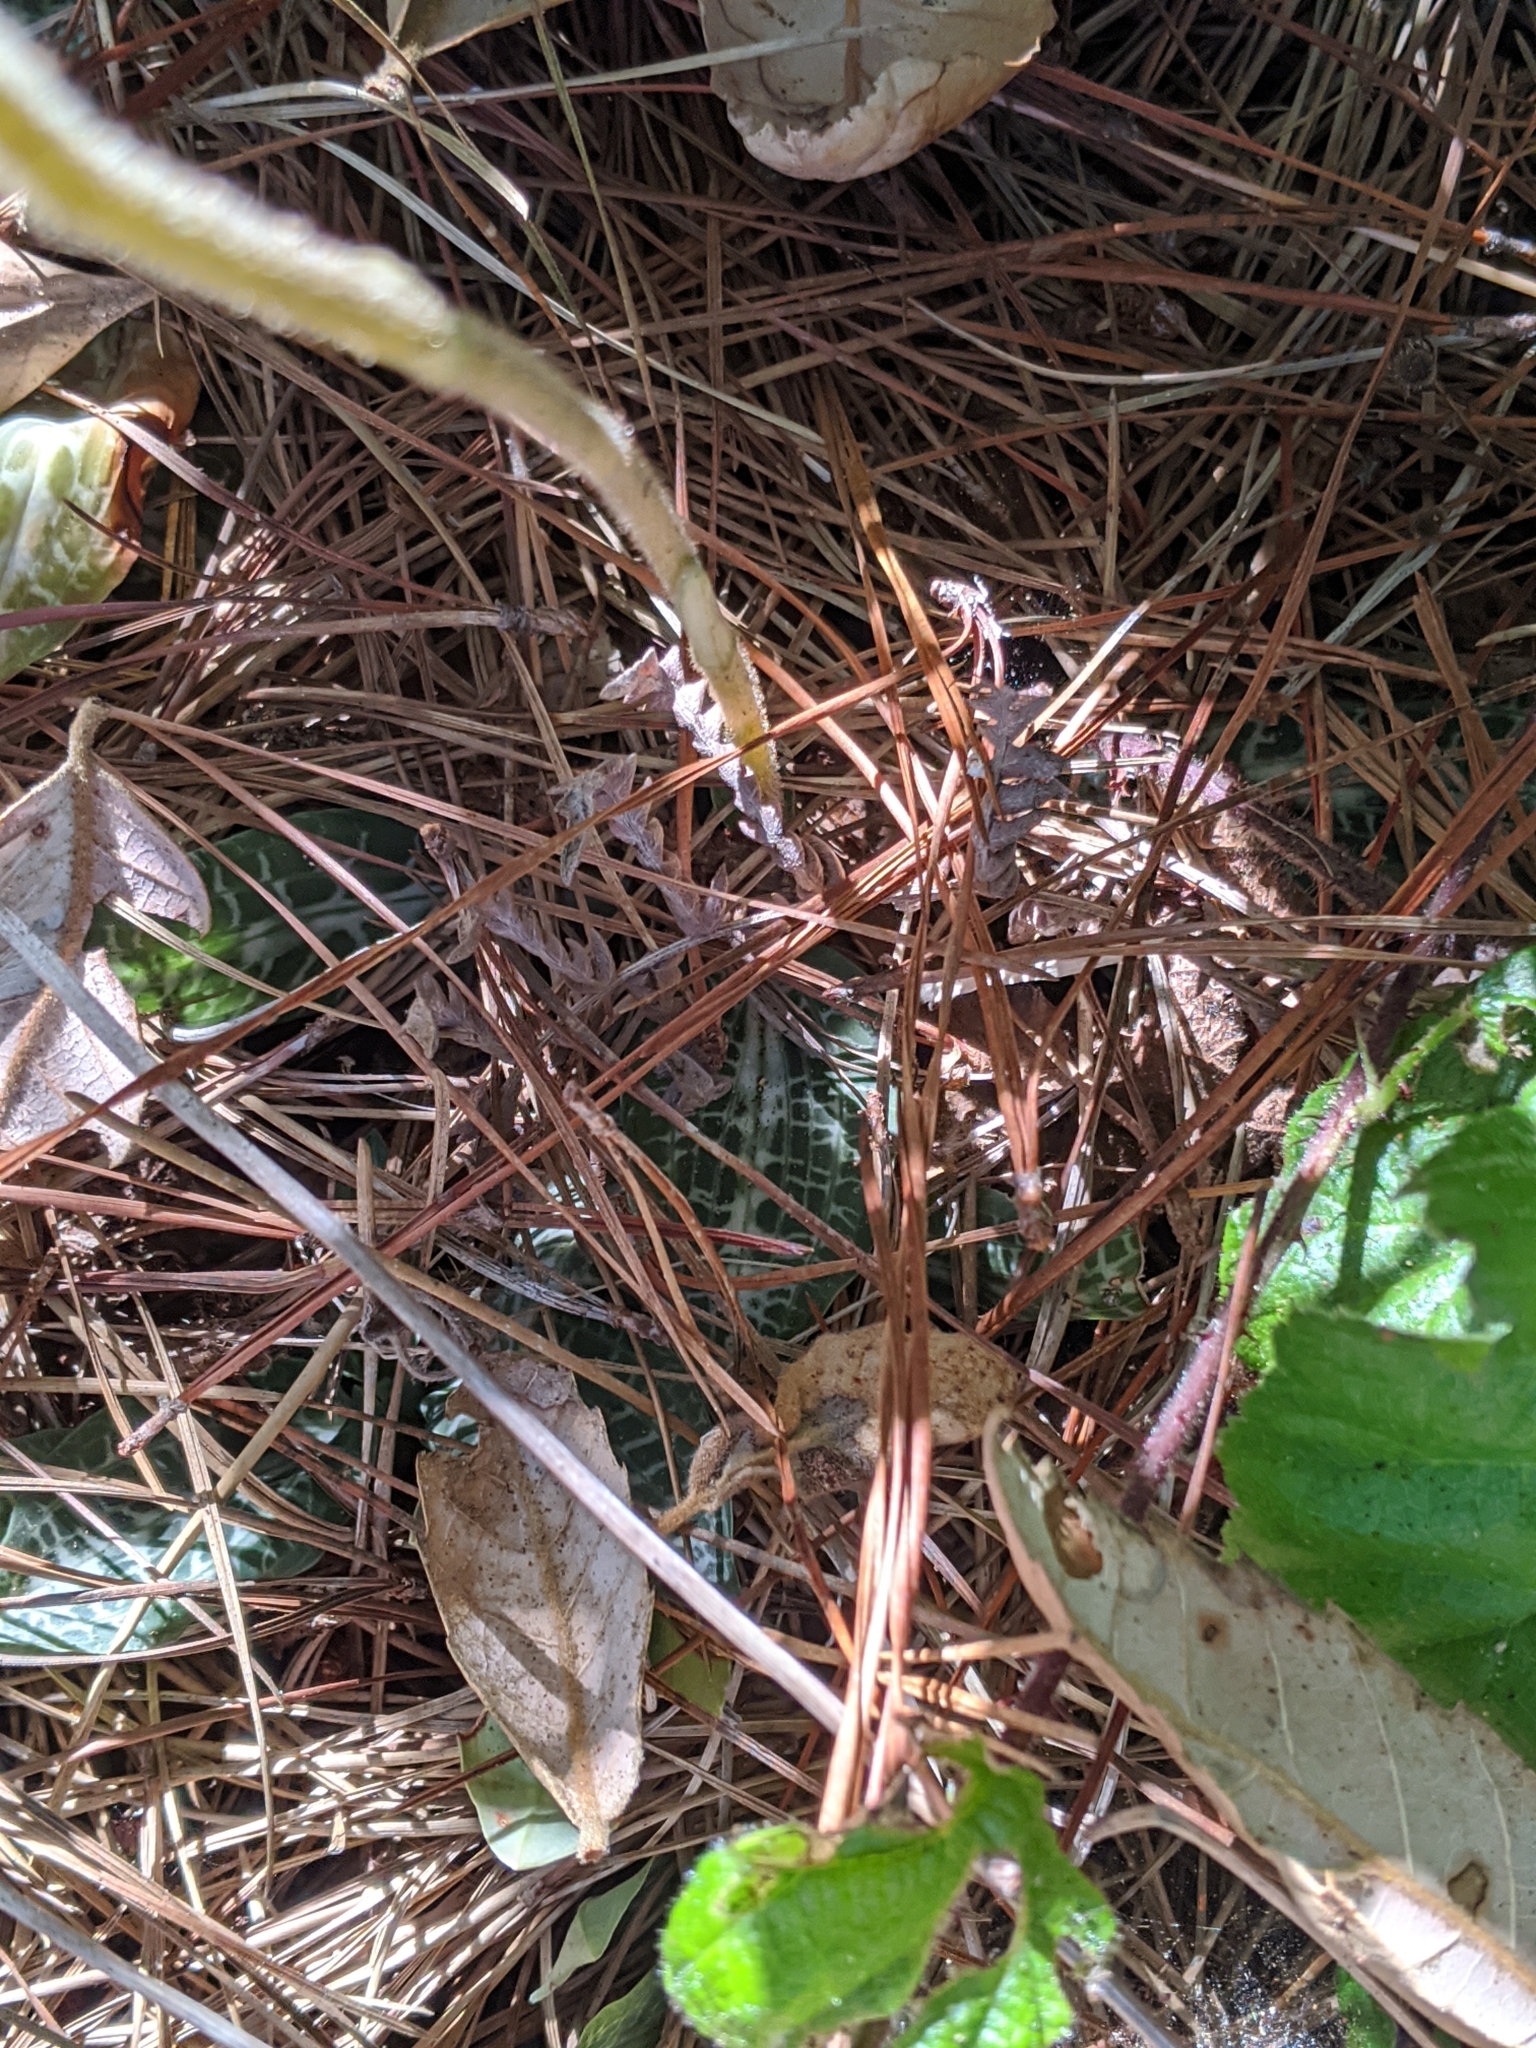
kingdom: Plantae
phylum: Tracheophyta
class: Liliopsida
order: Asparagales
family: Orchidaceae
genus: Goodyera
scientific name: Goodyera oblongifolia
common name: Giant rattlesnake-plantain
